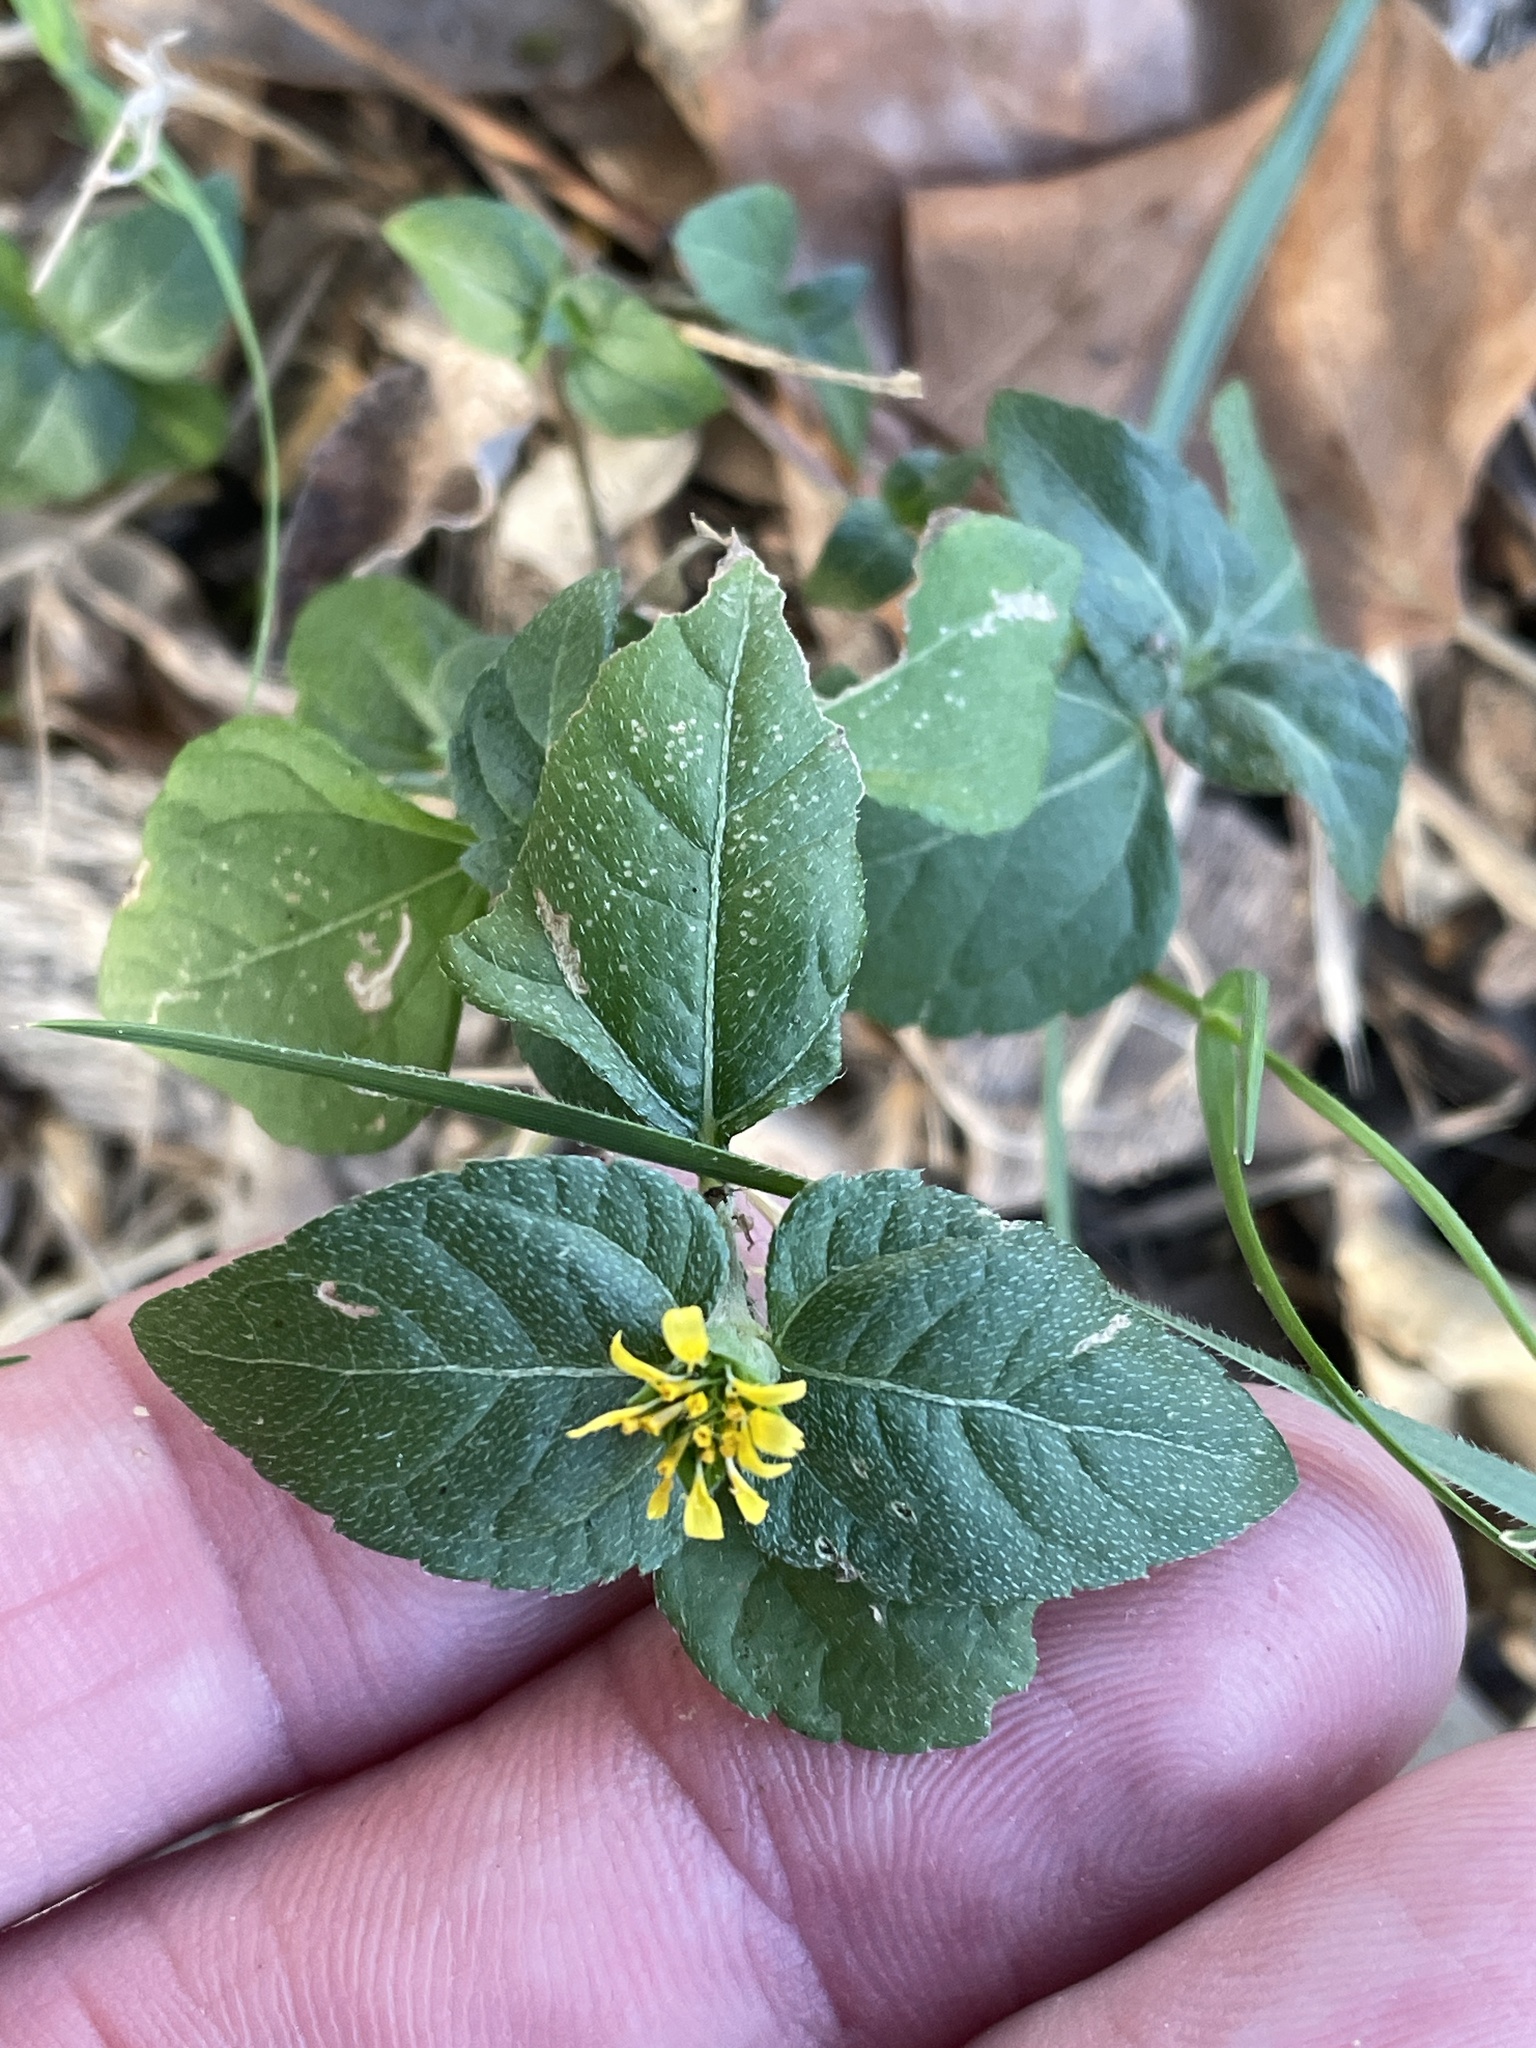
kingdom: Plantae
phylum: Tracheophyta
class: Magnoliopsida
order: Asterales
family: Asteraceae
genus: Calyptocarpus
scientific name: Calyptocarpus vialis
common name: Straggler daisy
